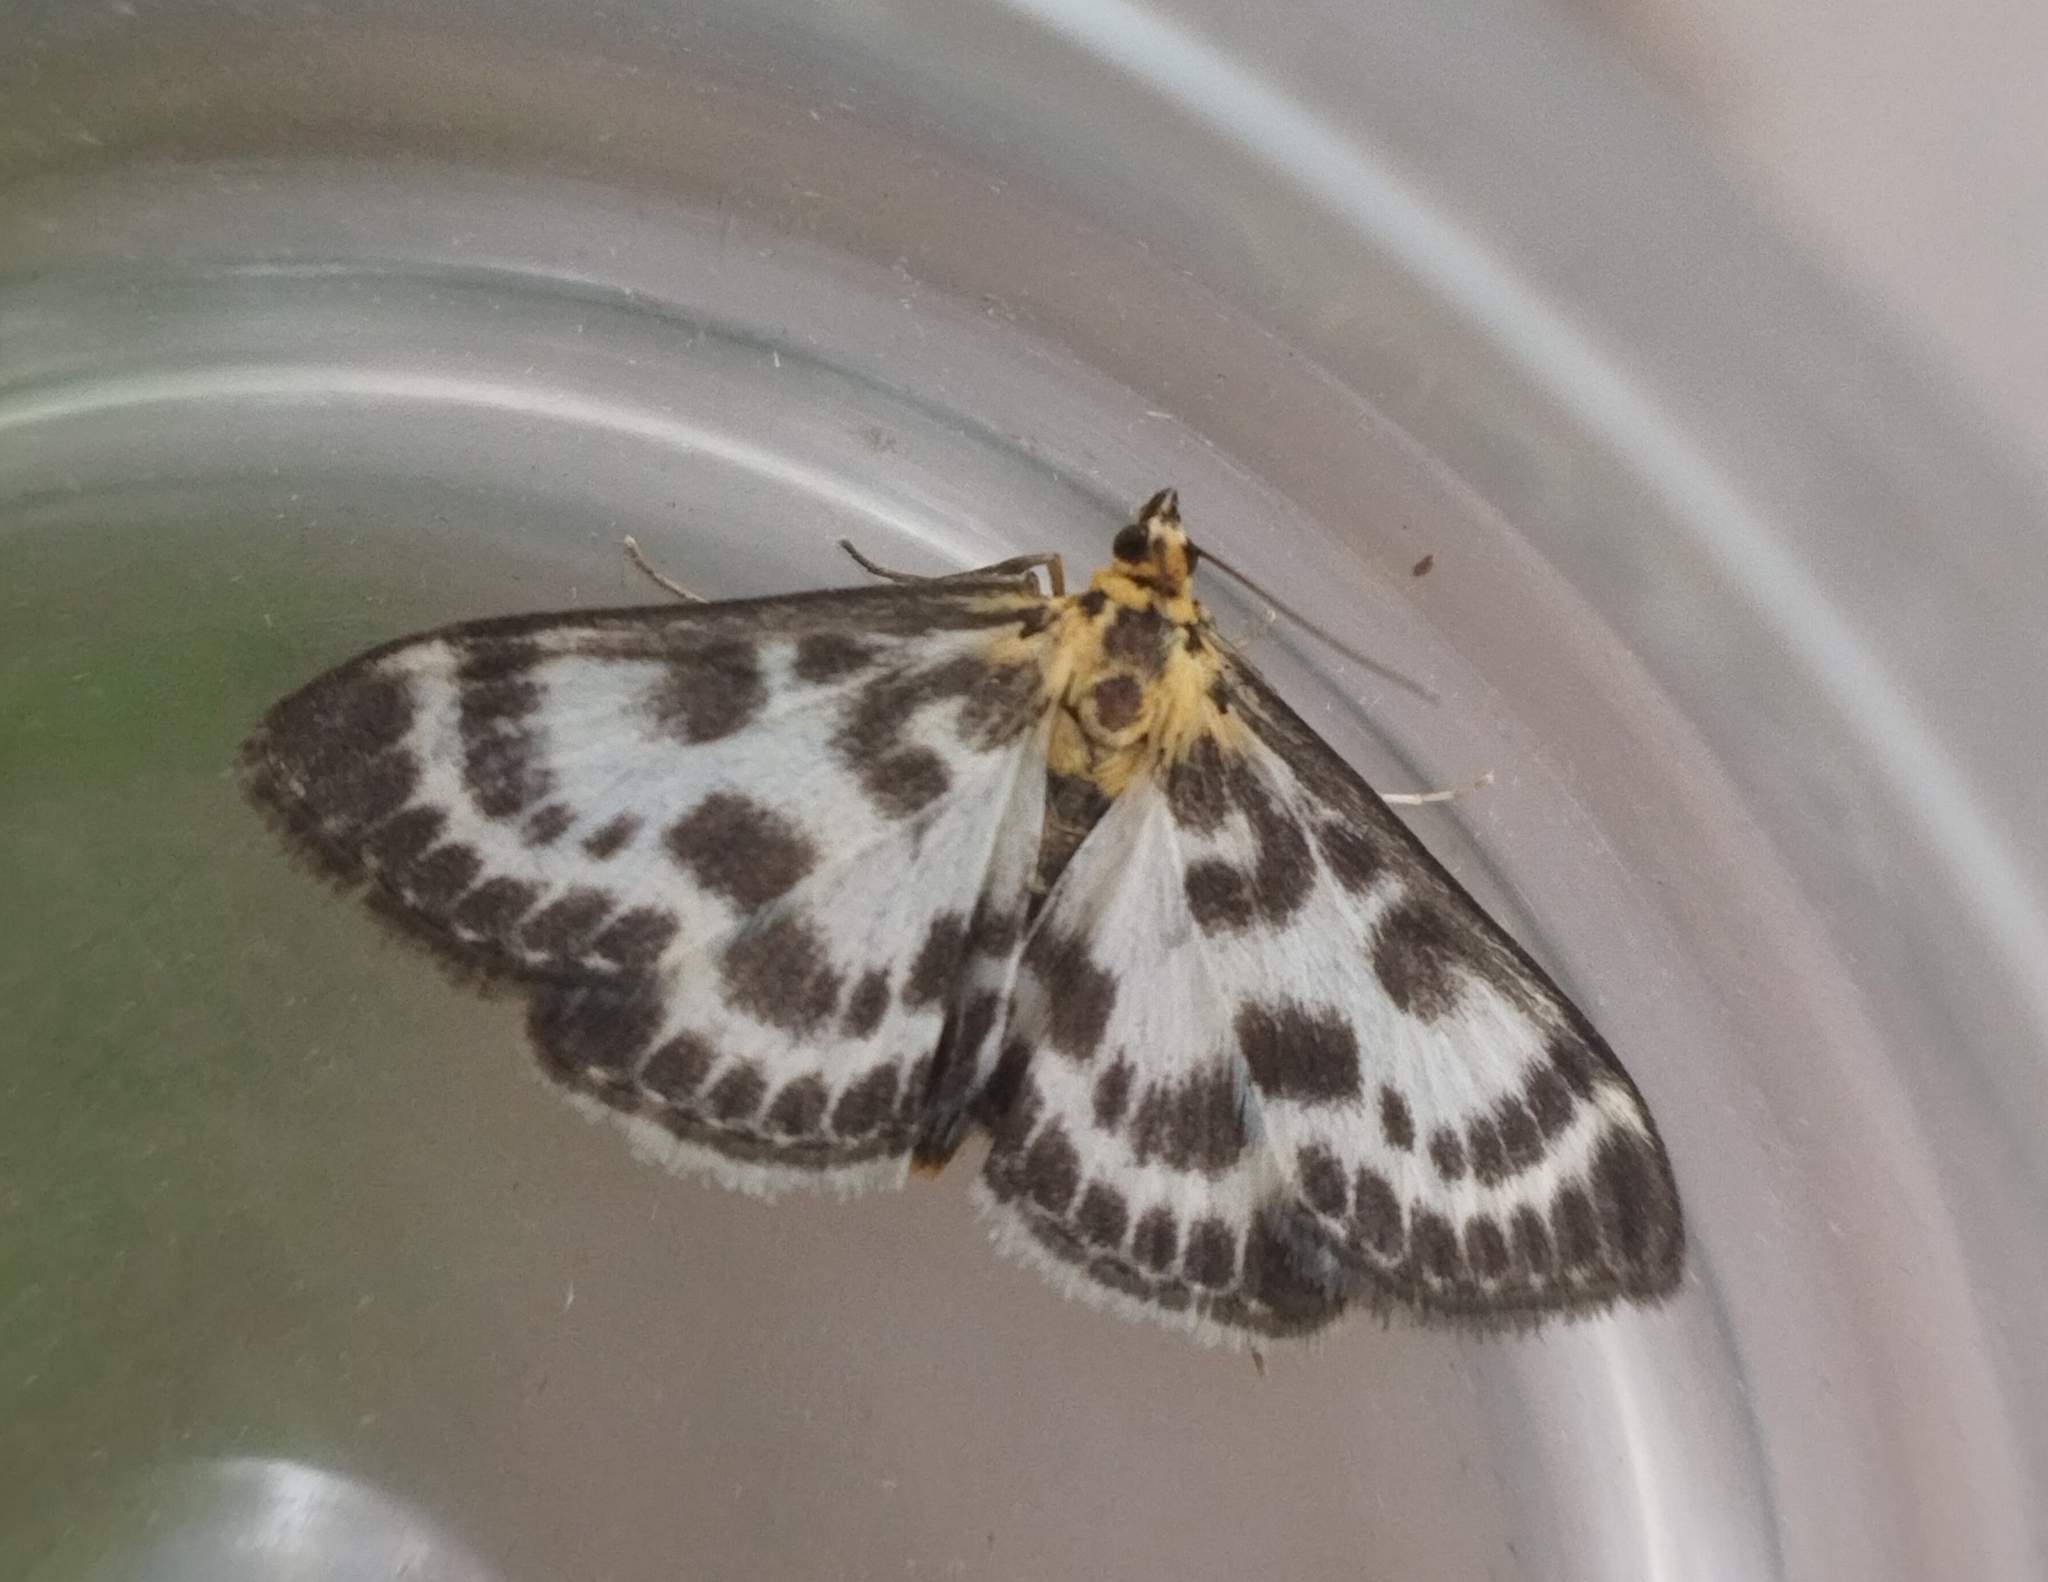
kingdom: Animalia
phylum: Arthropoda
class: Insecta
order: Lepidoptera
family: Crambidae
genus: Anania
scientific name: Anania hortulata
